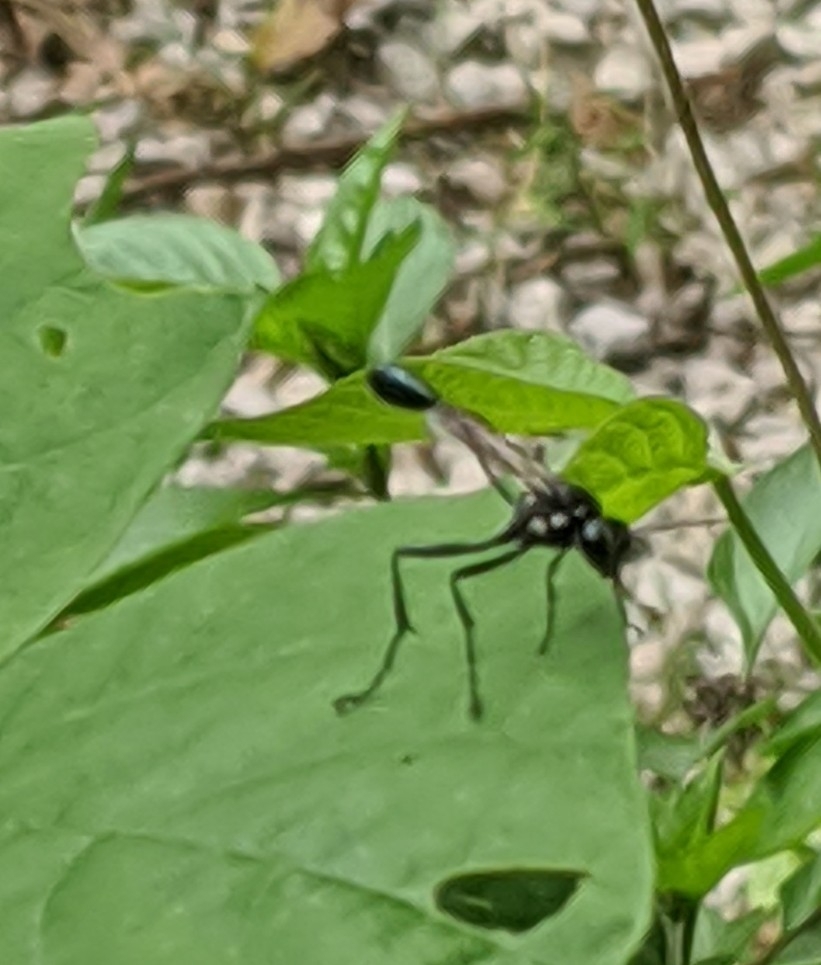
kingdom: Animalia
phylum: Arthropoda
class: Insecta
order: Hymenoptera
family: Sphecidae
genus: Eremnophila
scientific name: Eremnophila aureonotata
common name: Gold-marked thread-waisted wasp
